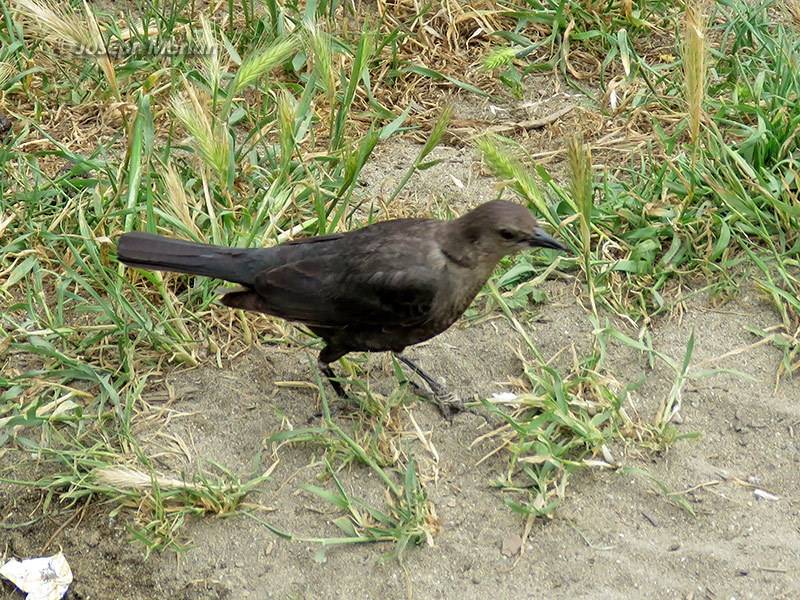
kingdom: Animalia
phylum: Chordata
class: Aves
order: Passeriformes
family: Icteridae
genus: Euphagus
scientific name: Euphagus cyanocephalus
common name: Brewer's blackbird
